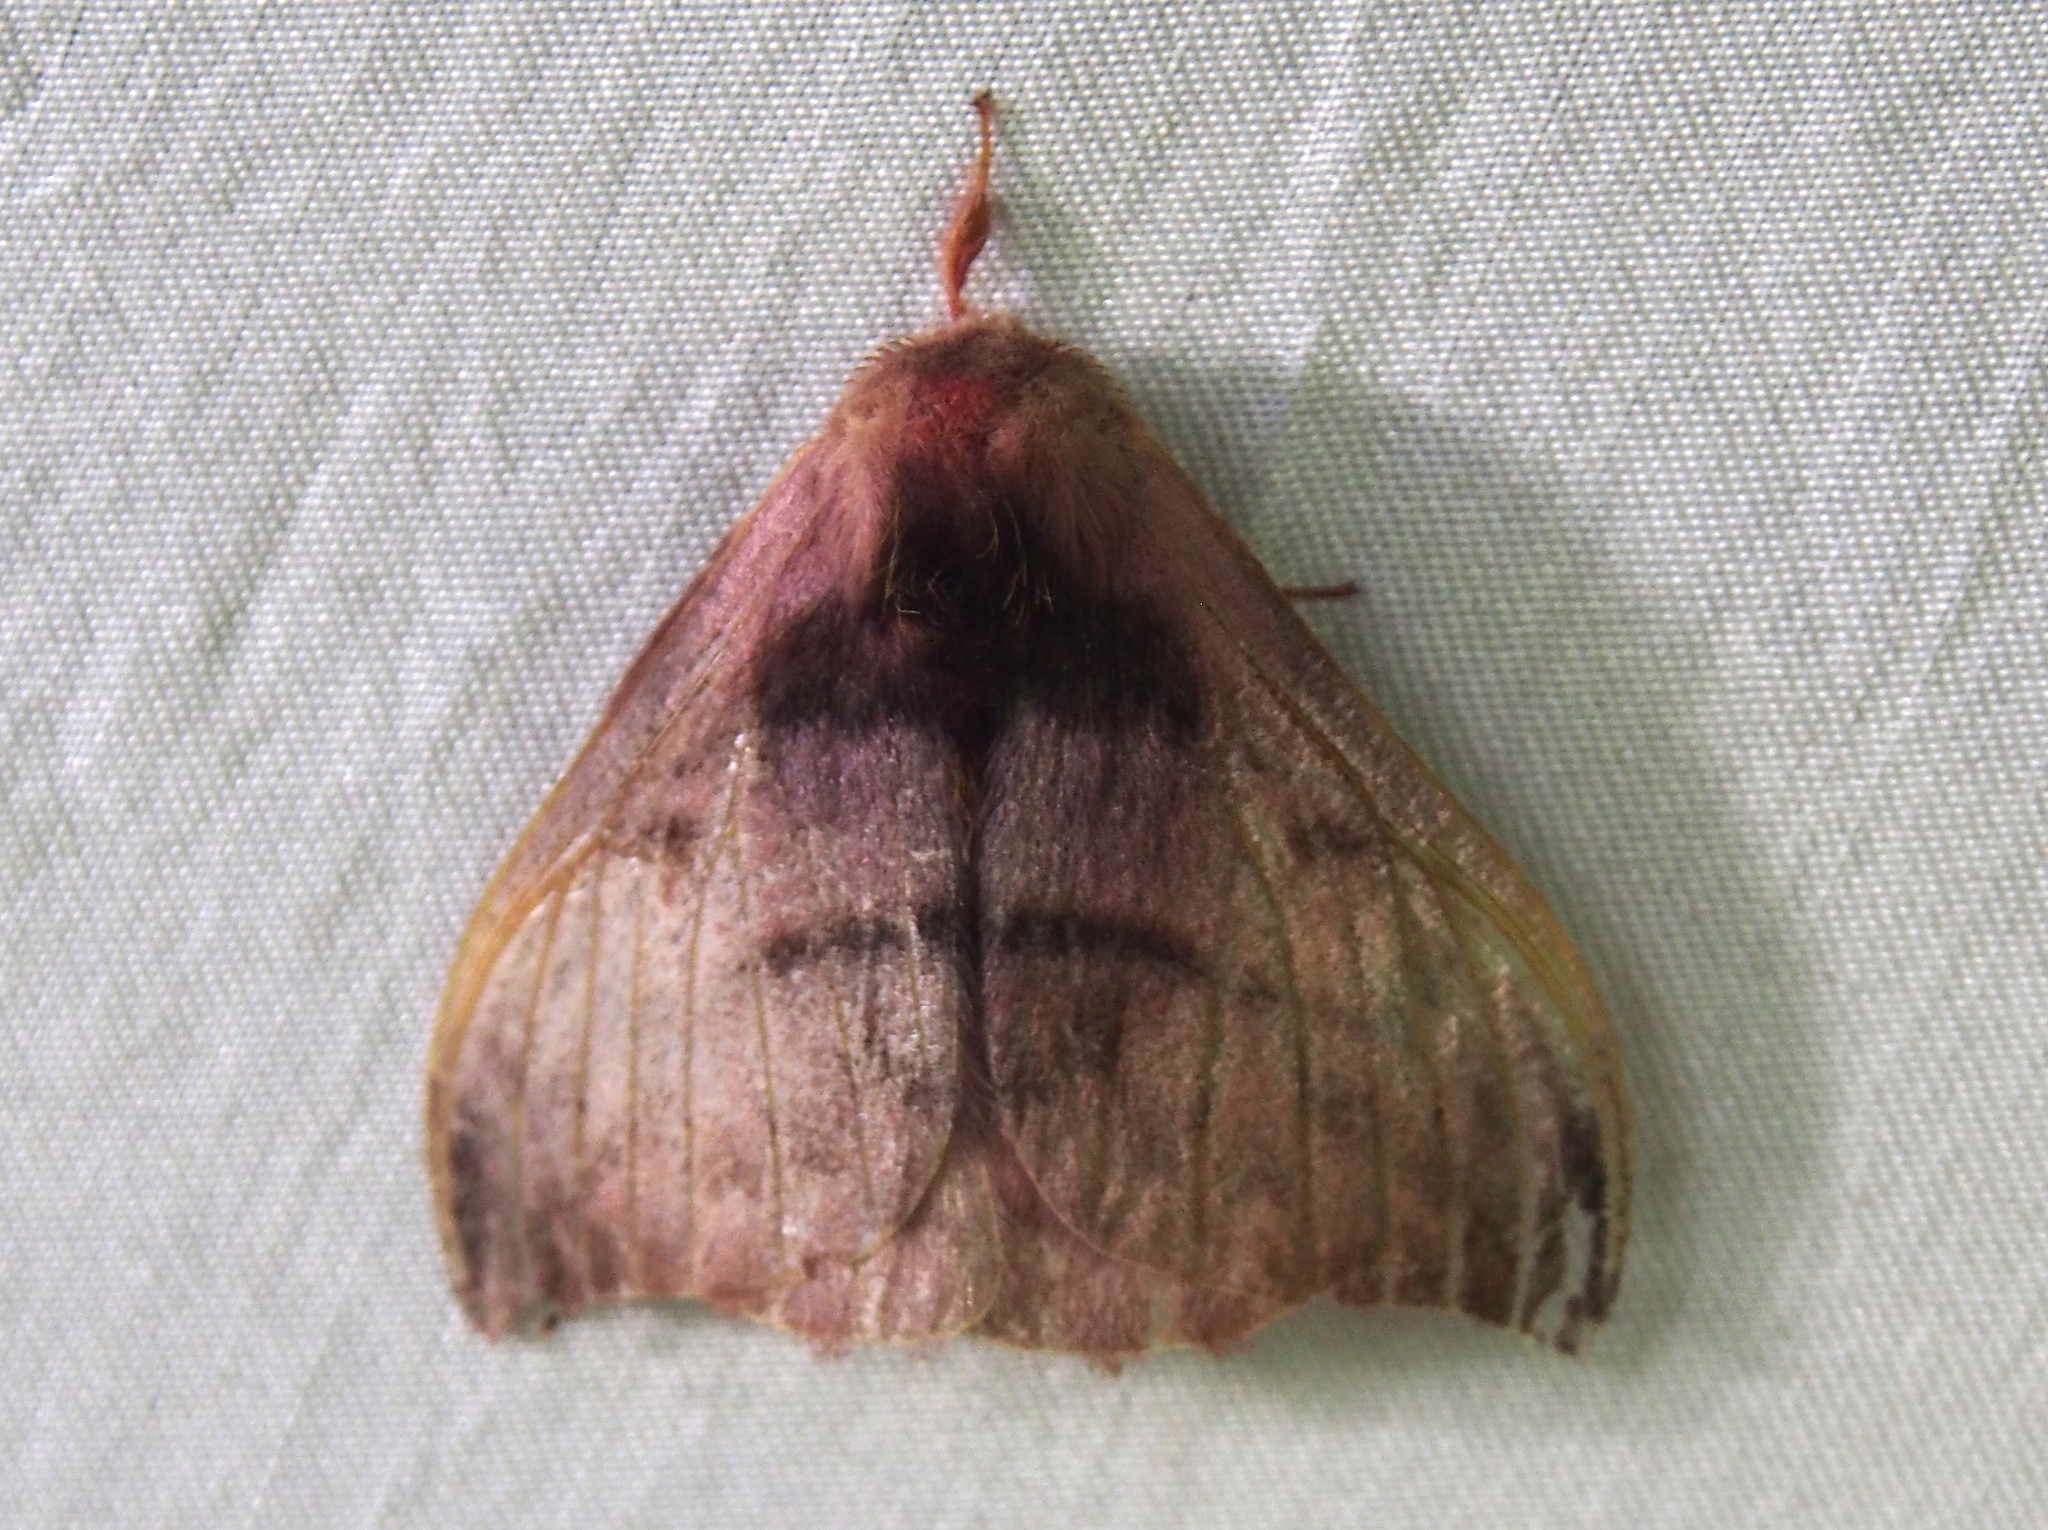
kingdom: Animalia
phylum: Arthropoda
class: Insecta
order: Lepidoptera
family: Saturniidae
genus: Hylesia
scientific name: Hylesia rufipes
